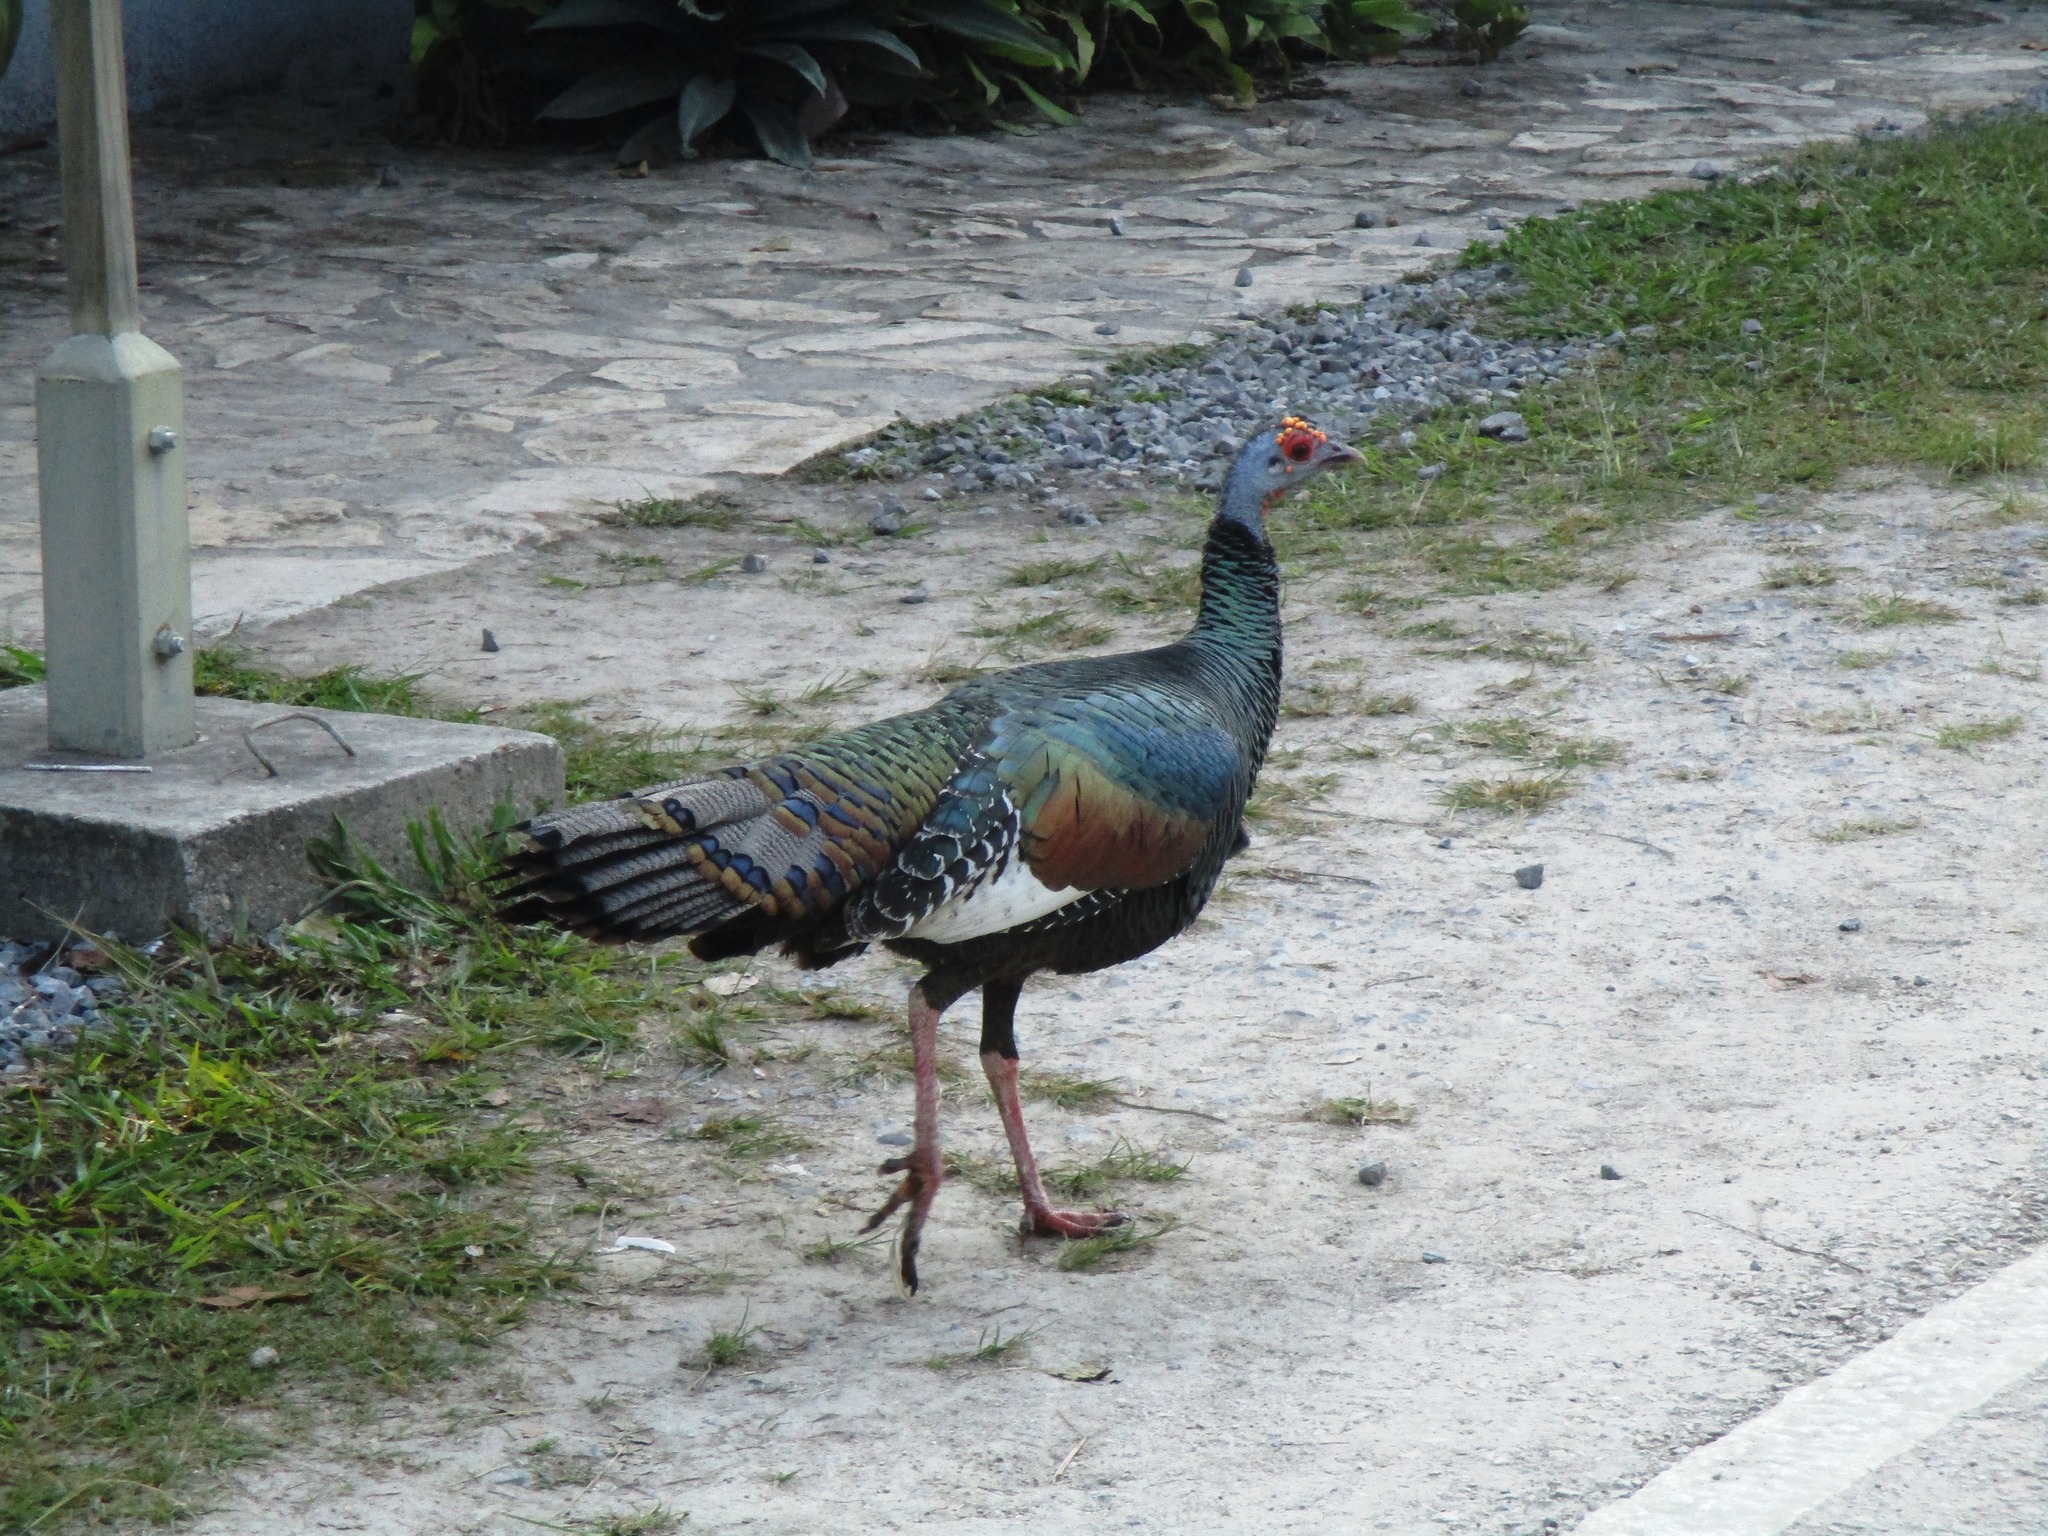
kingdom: Animalia
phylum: Chordata
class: Aves
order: Galliformes
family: Phasianidae
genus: Meleagris
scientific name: Meleagris ocellata
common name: Ocellated turkey
